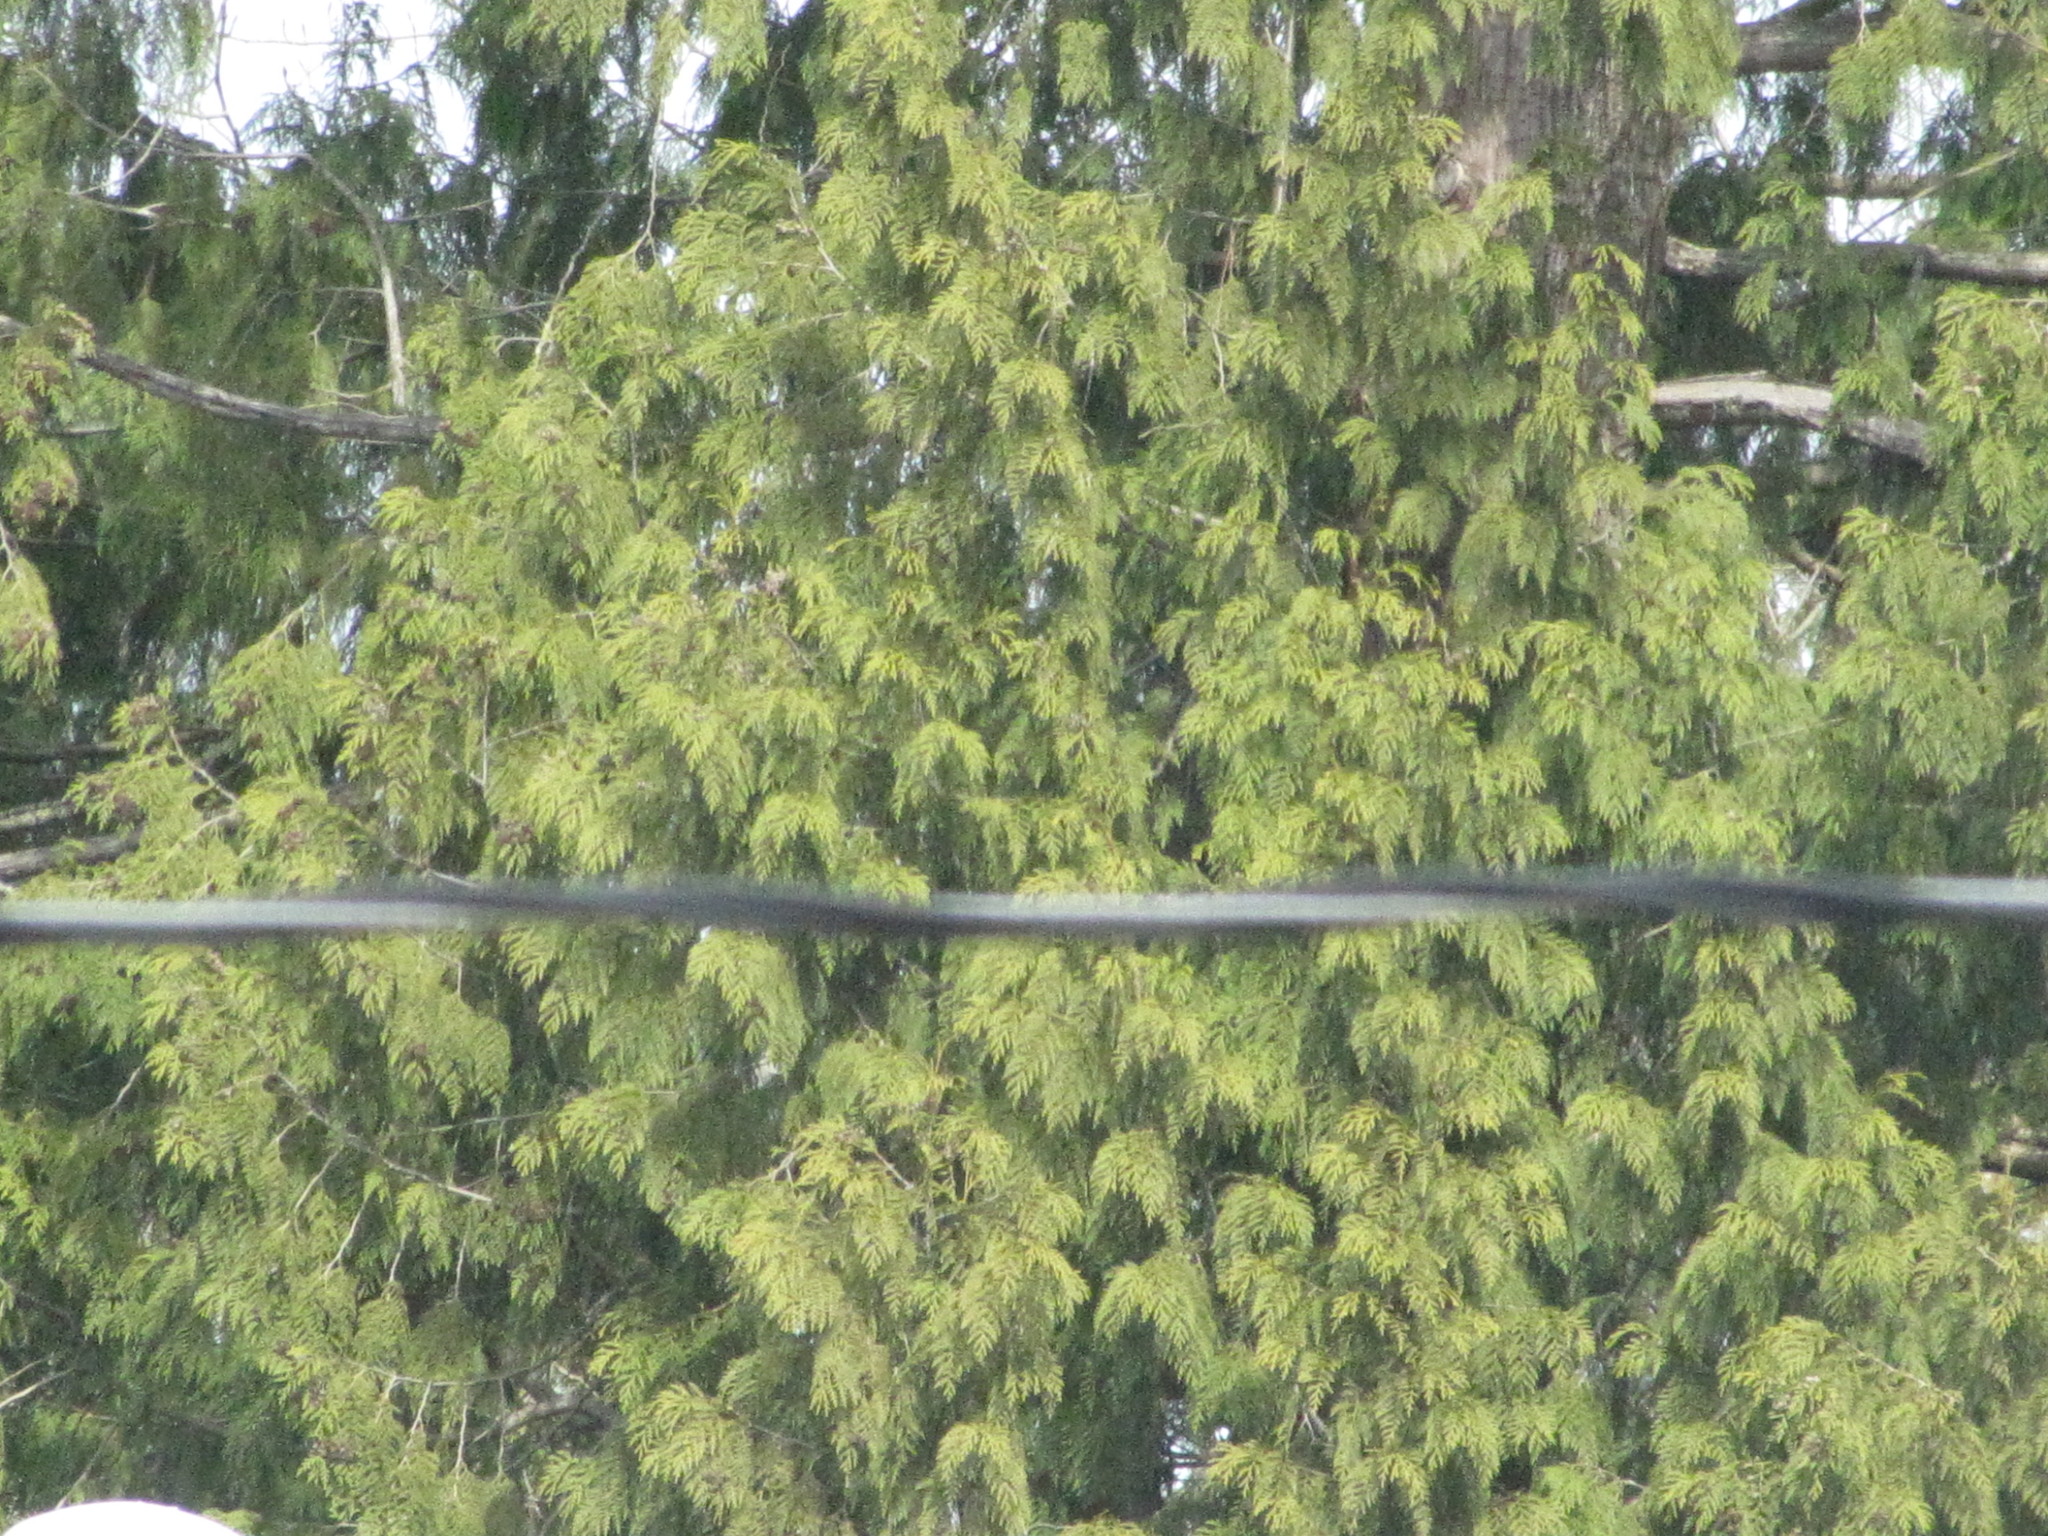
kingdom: Plantae
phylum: Tracheophyta
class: Pinopsida
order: Pinales
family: Cupressaceae
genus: Thuja
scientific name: Thuja plicata
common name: Western red-cedar
